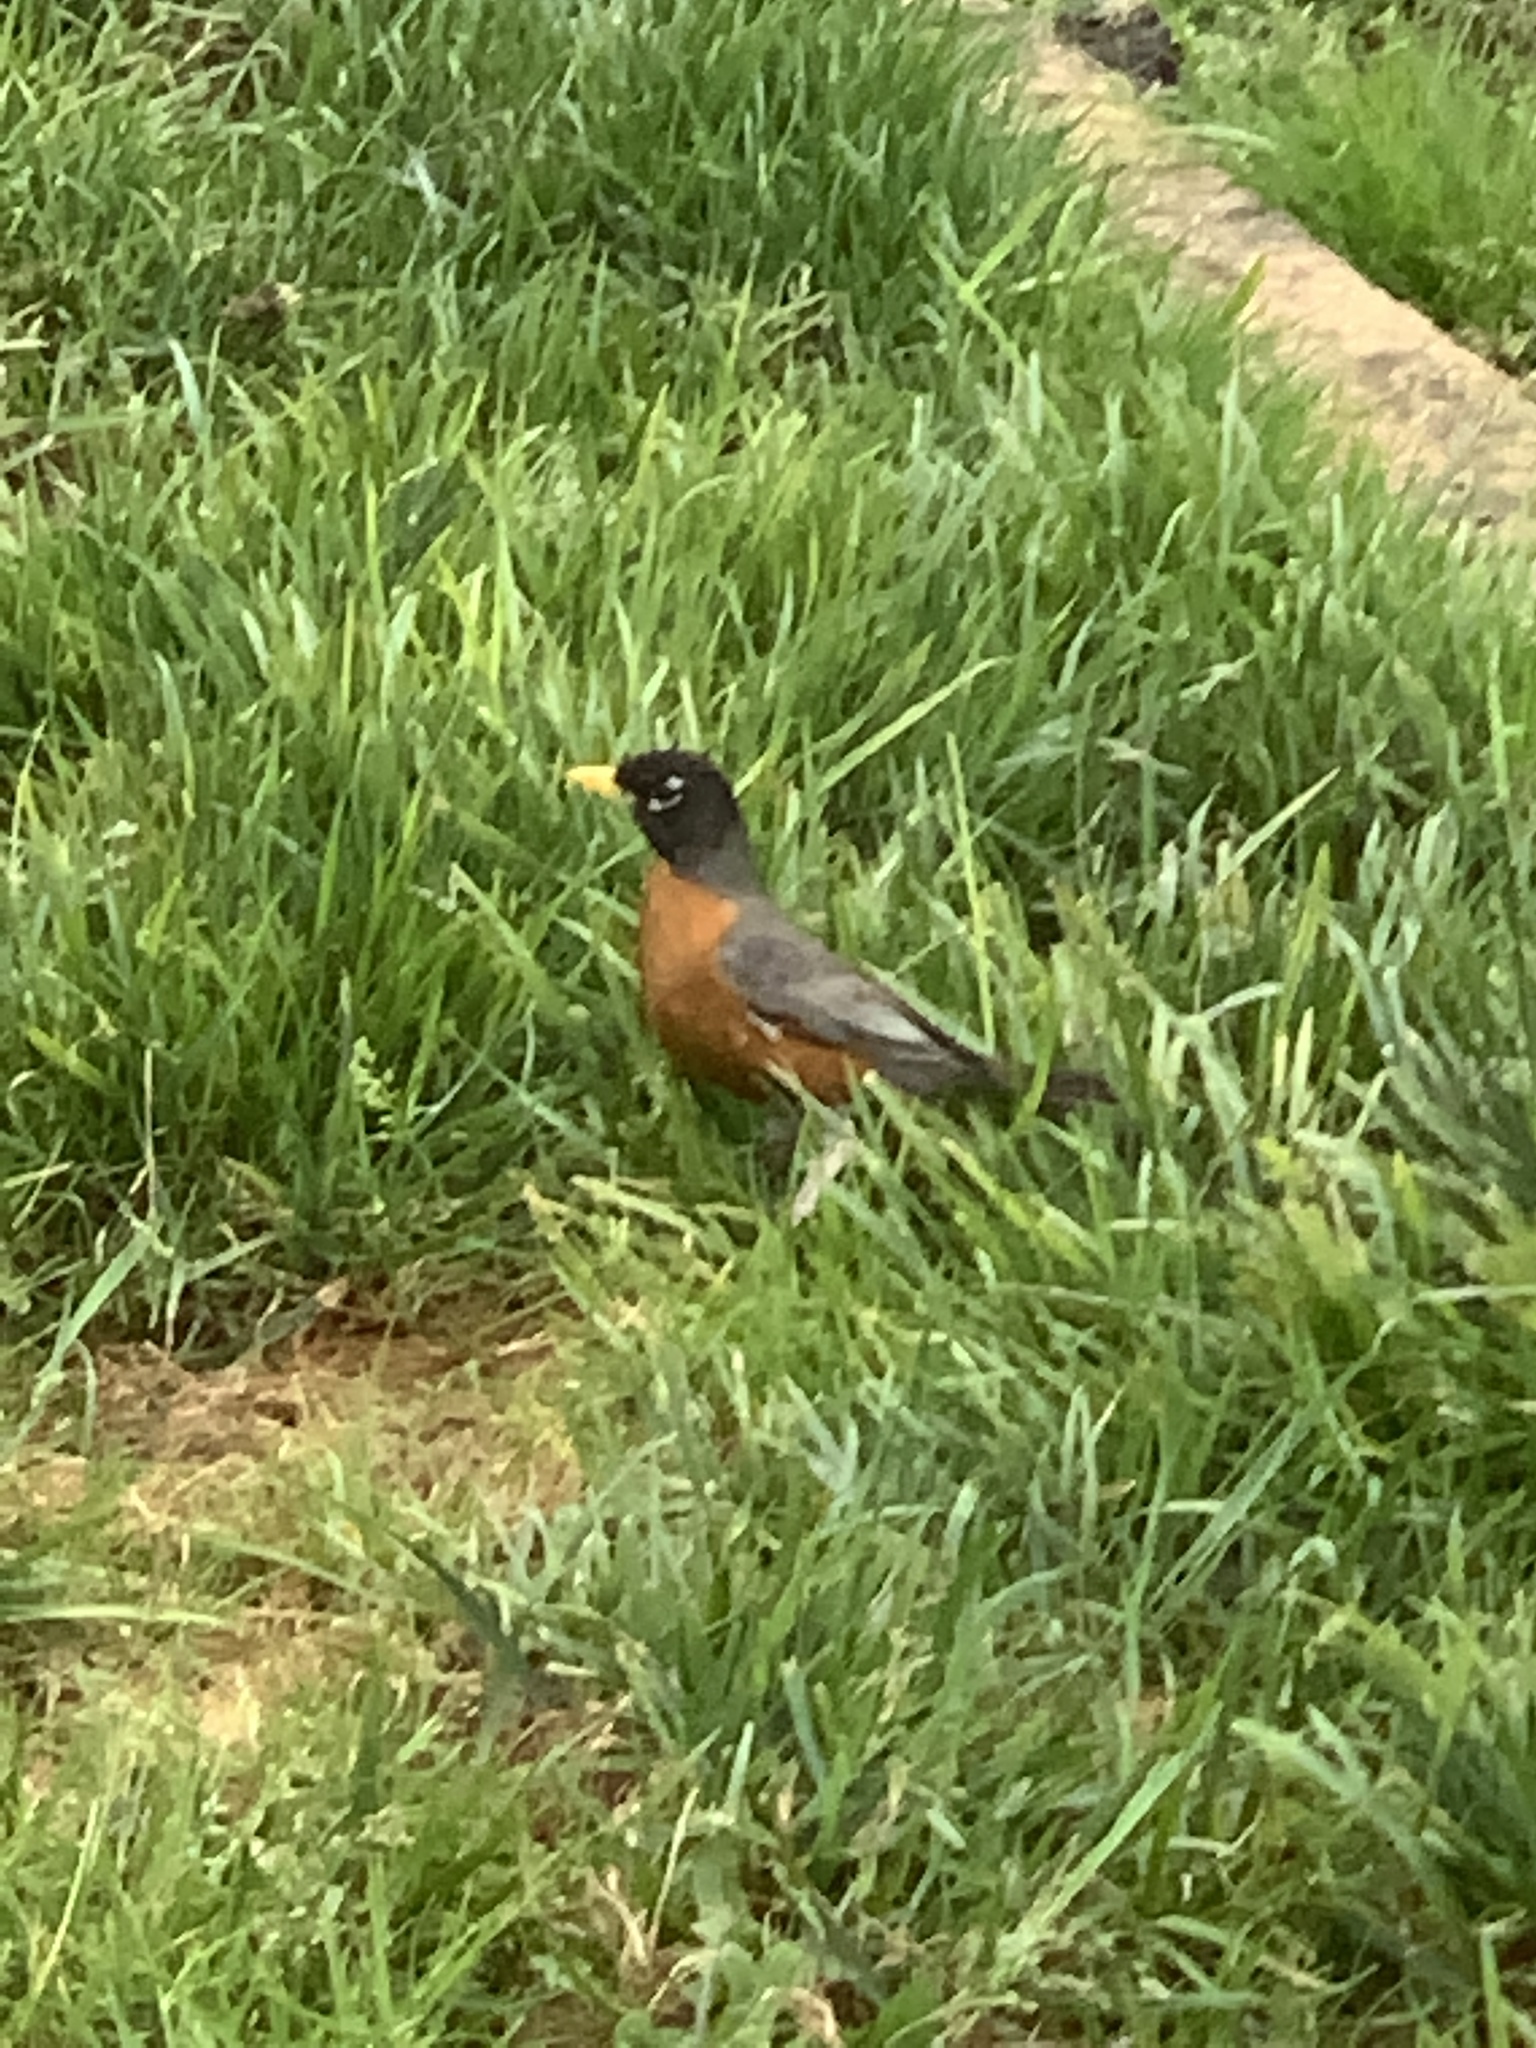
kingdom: Animalia
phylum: Chordata
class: Aves
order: Passeriformes
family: Turdidae
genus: Turdus
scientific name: Turdus migratorius
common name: American robin
